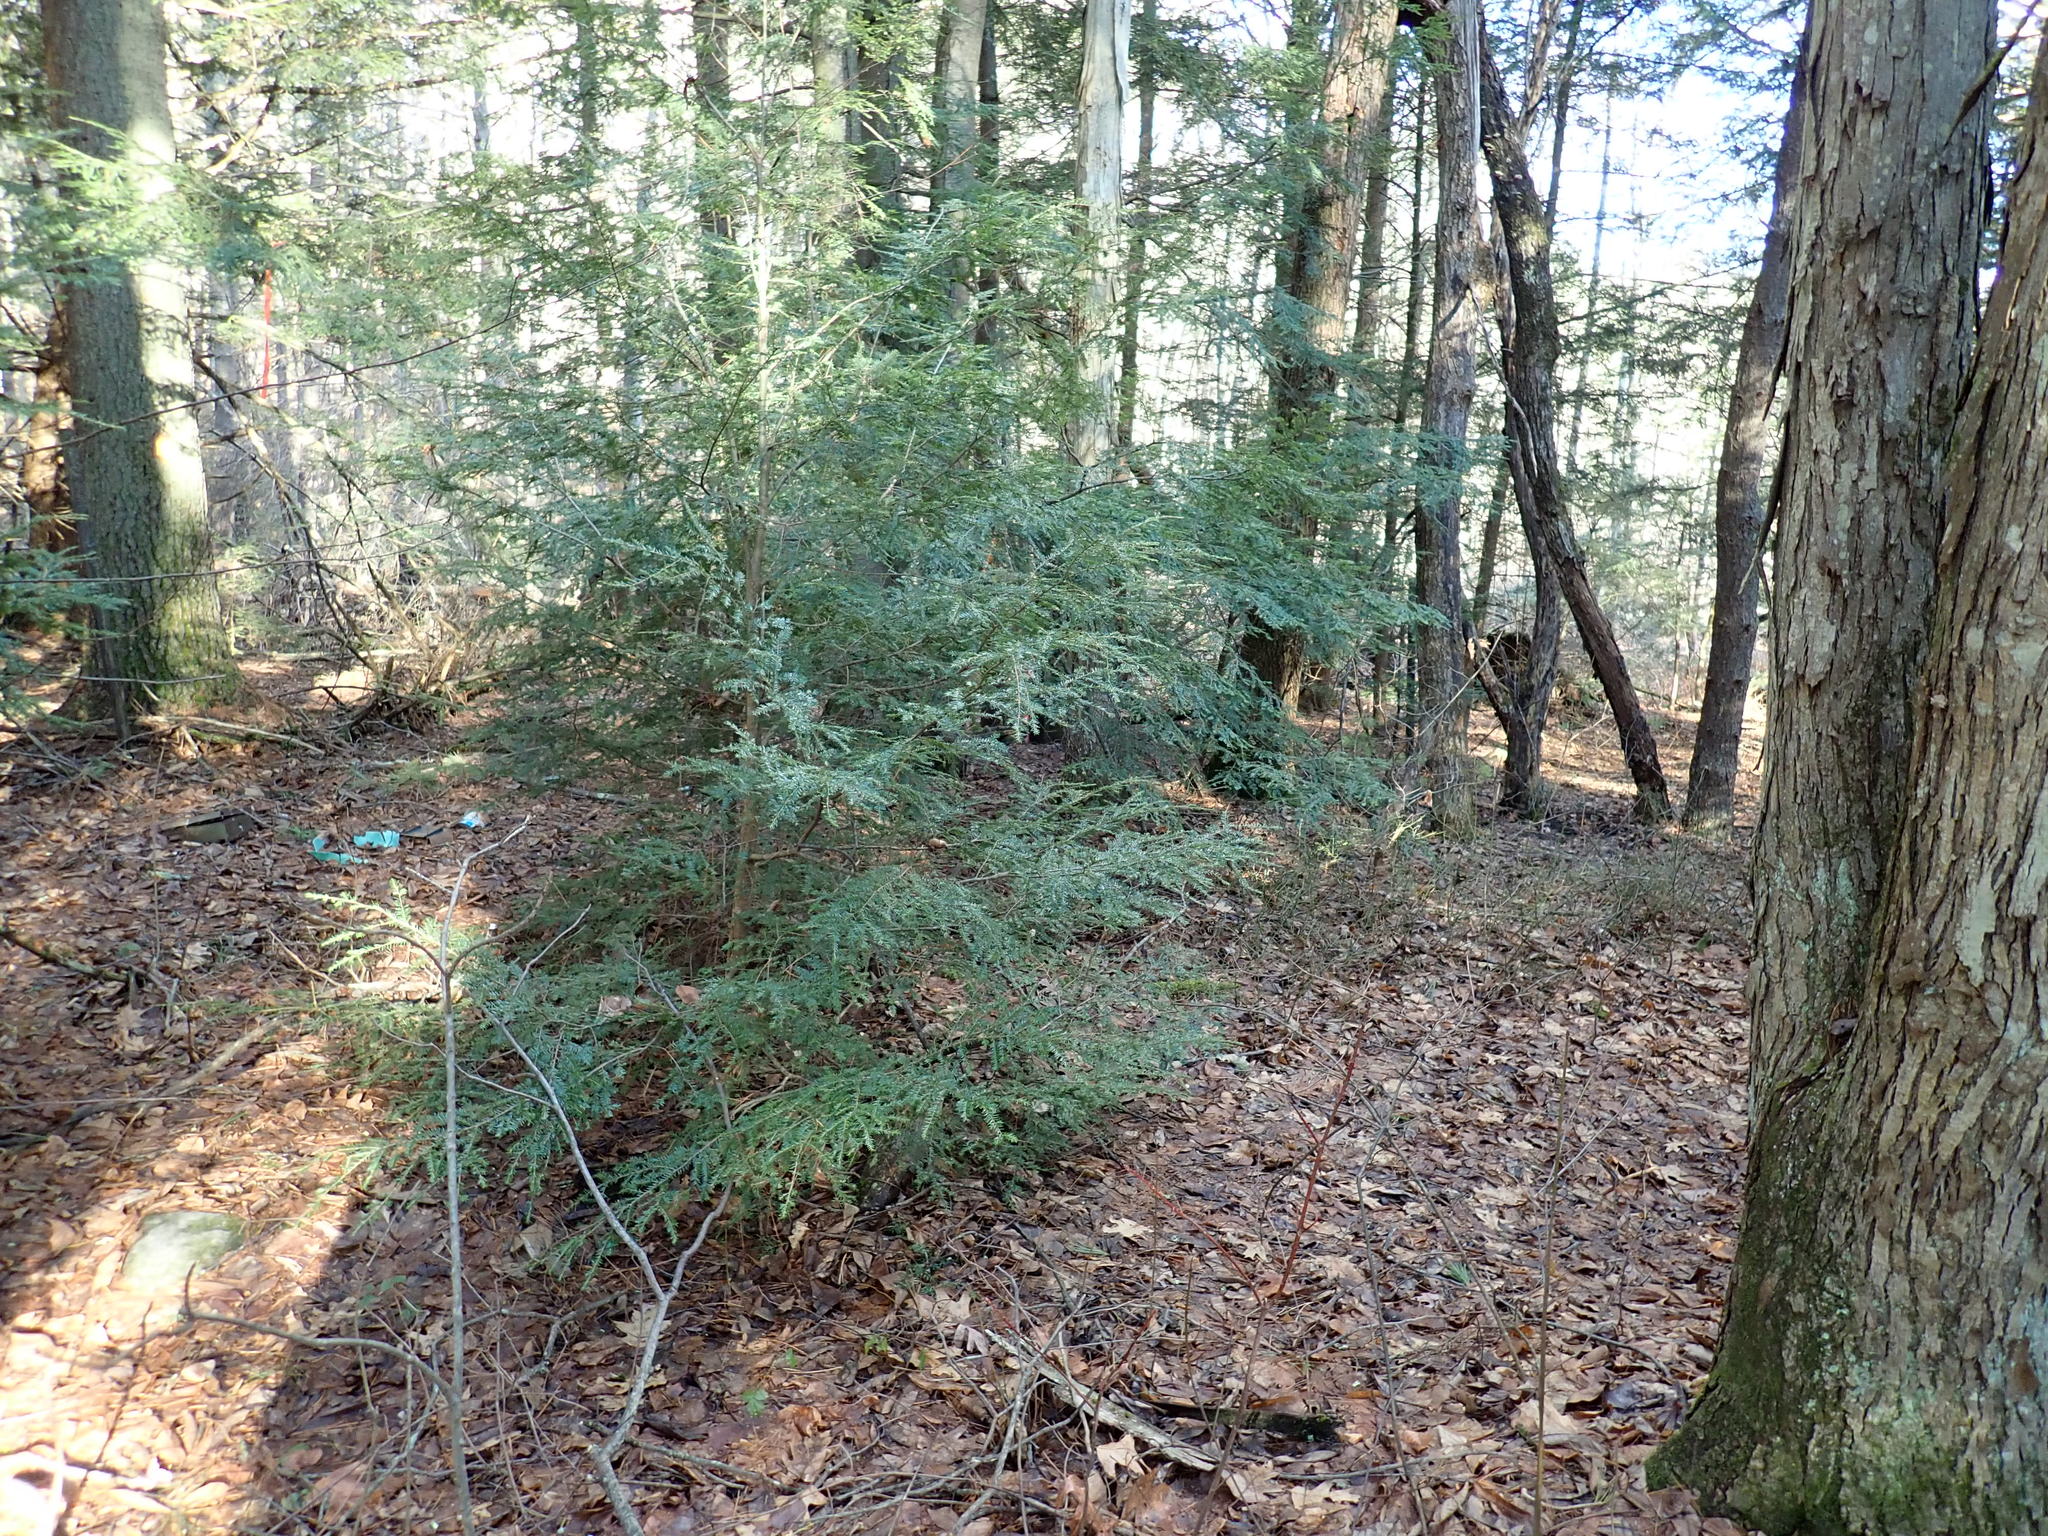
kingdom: Plantae
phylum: Tracheophyta
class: Pinopsida
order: Pinales
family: Pinaceae
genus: Tsuga
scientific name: Tsuga canadensis
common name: Eastern hemlock
